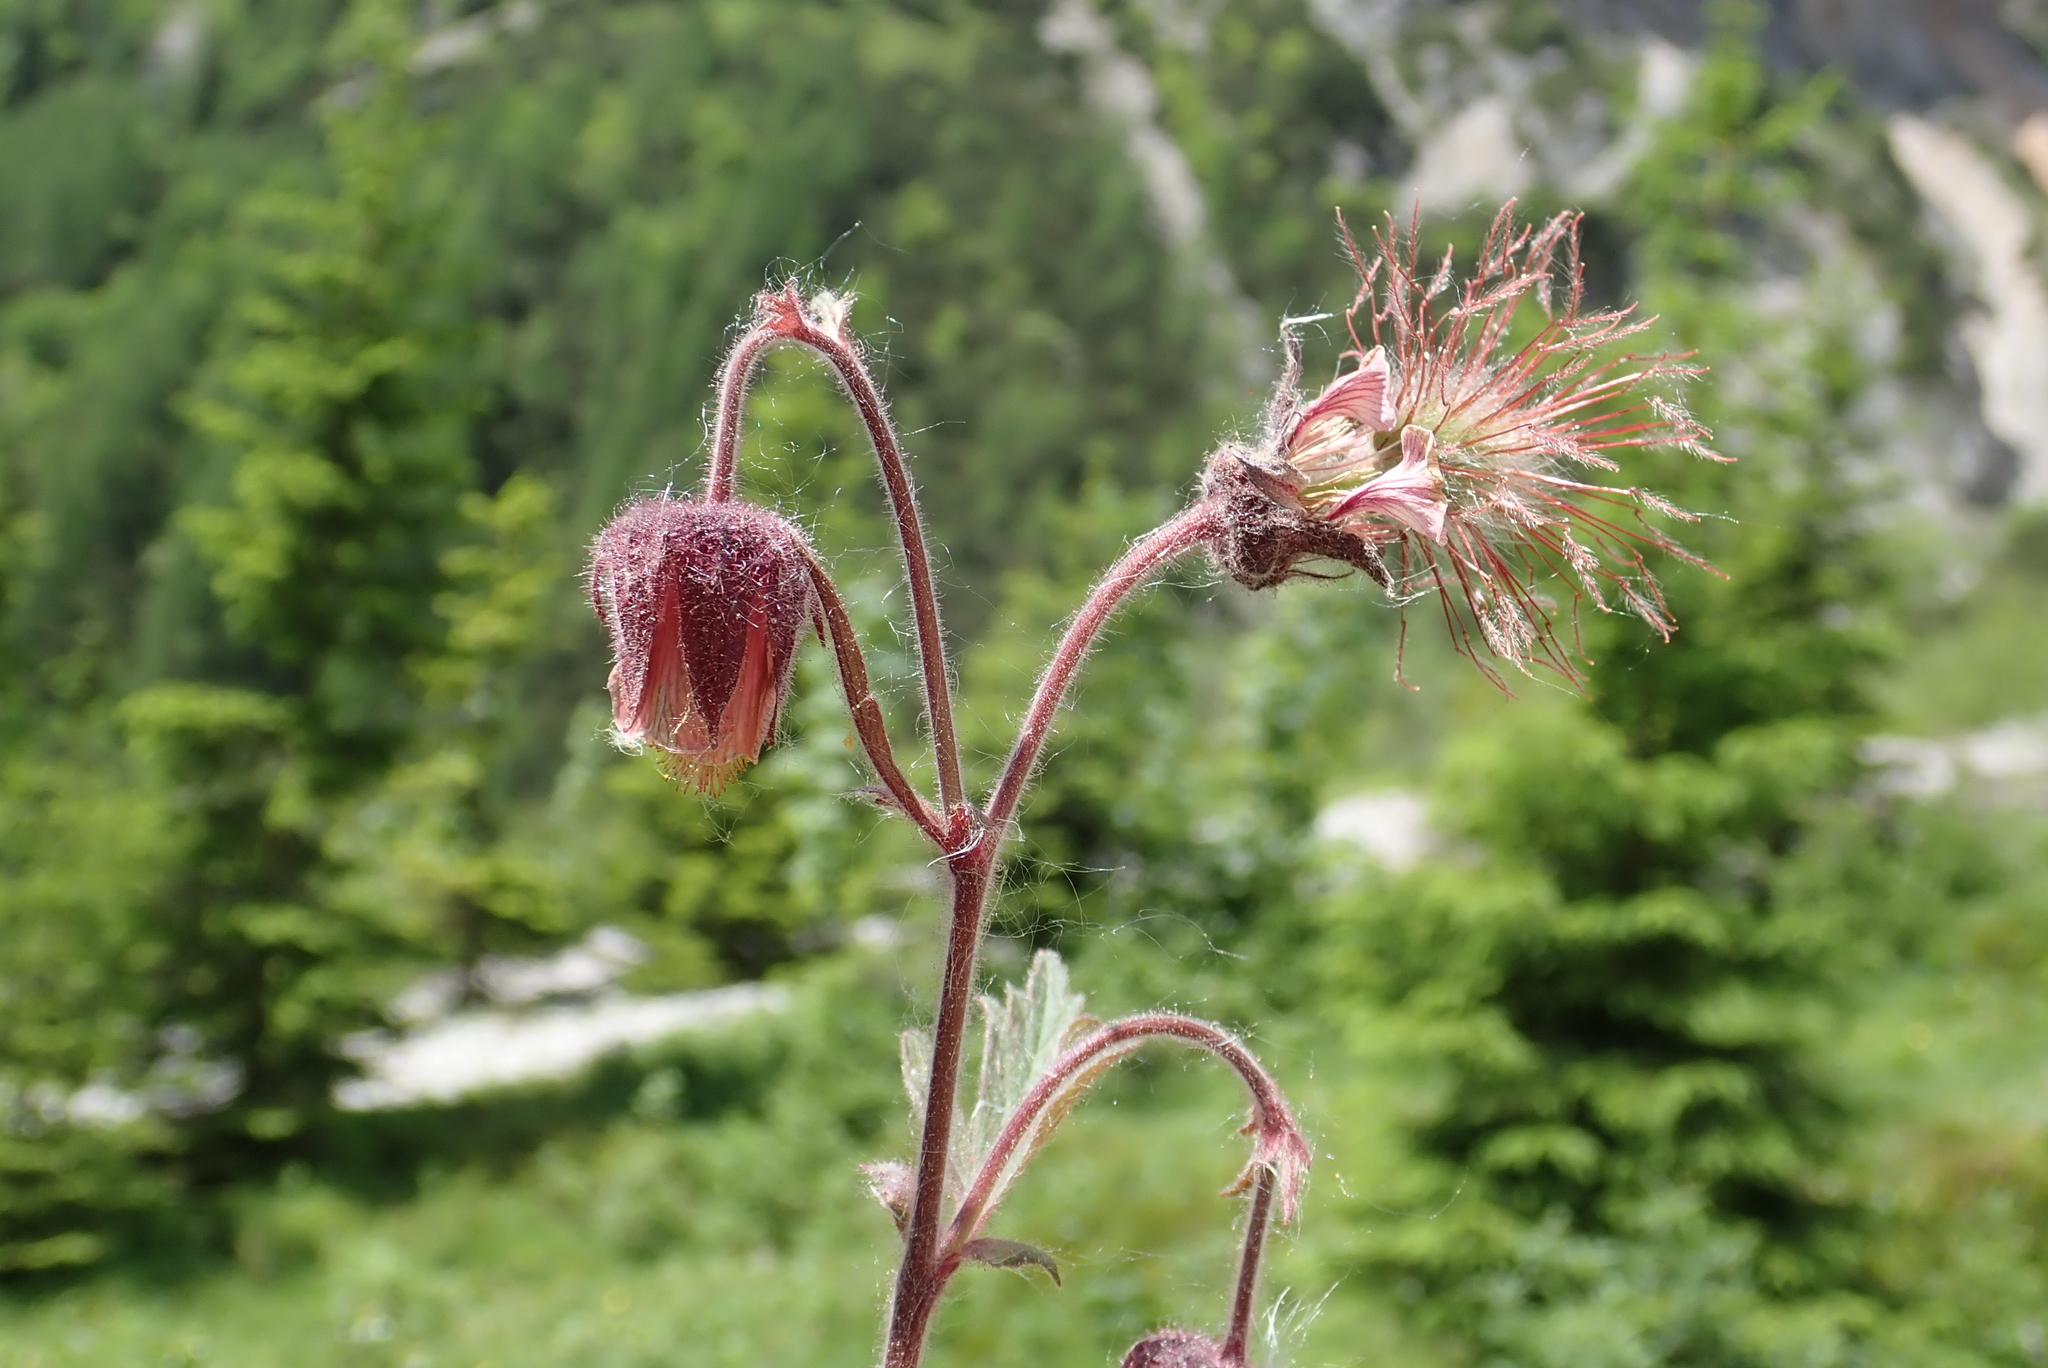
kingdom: Plantae
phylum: Tracheophyta
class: Magnoliopsida
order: Rosales
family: Rosaceae
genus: Geum
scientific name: Geum rivale
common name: Water avens
